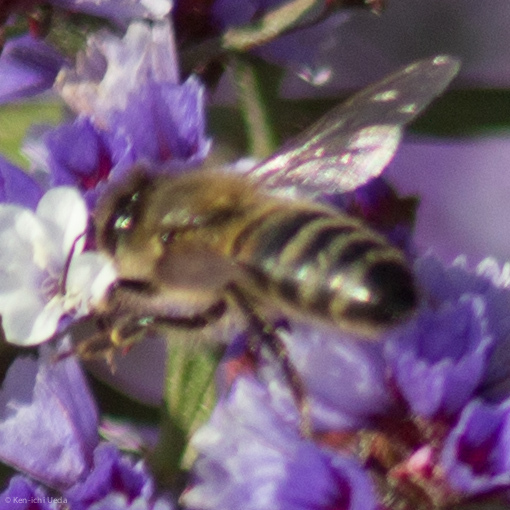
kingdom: Animalia
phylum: Arthropoda
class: Insecta
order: Hymenoptera
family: Apidae
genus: Apis
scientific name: Apis mellifera
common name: Honey bee
